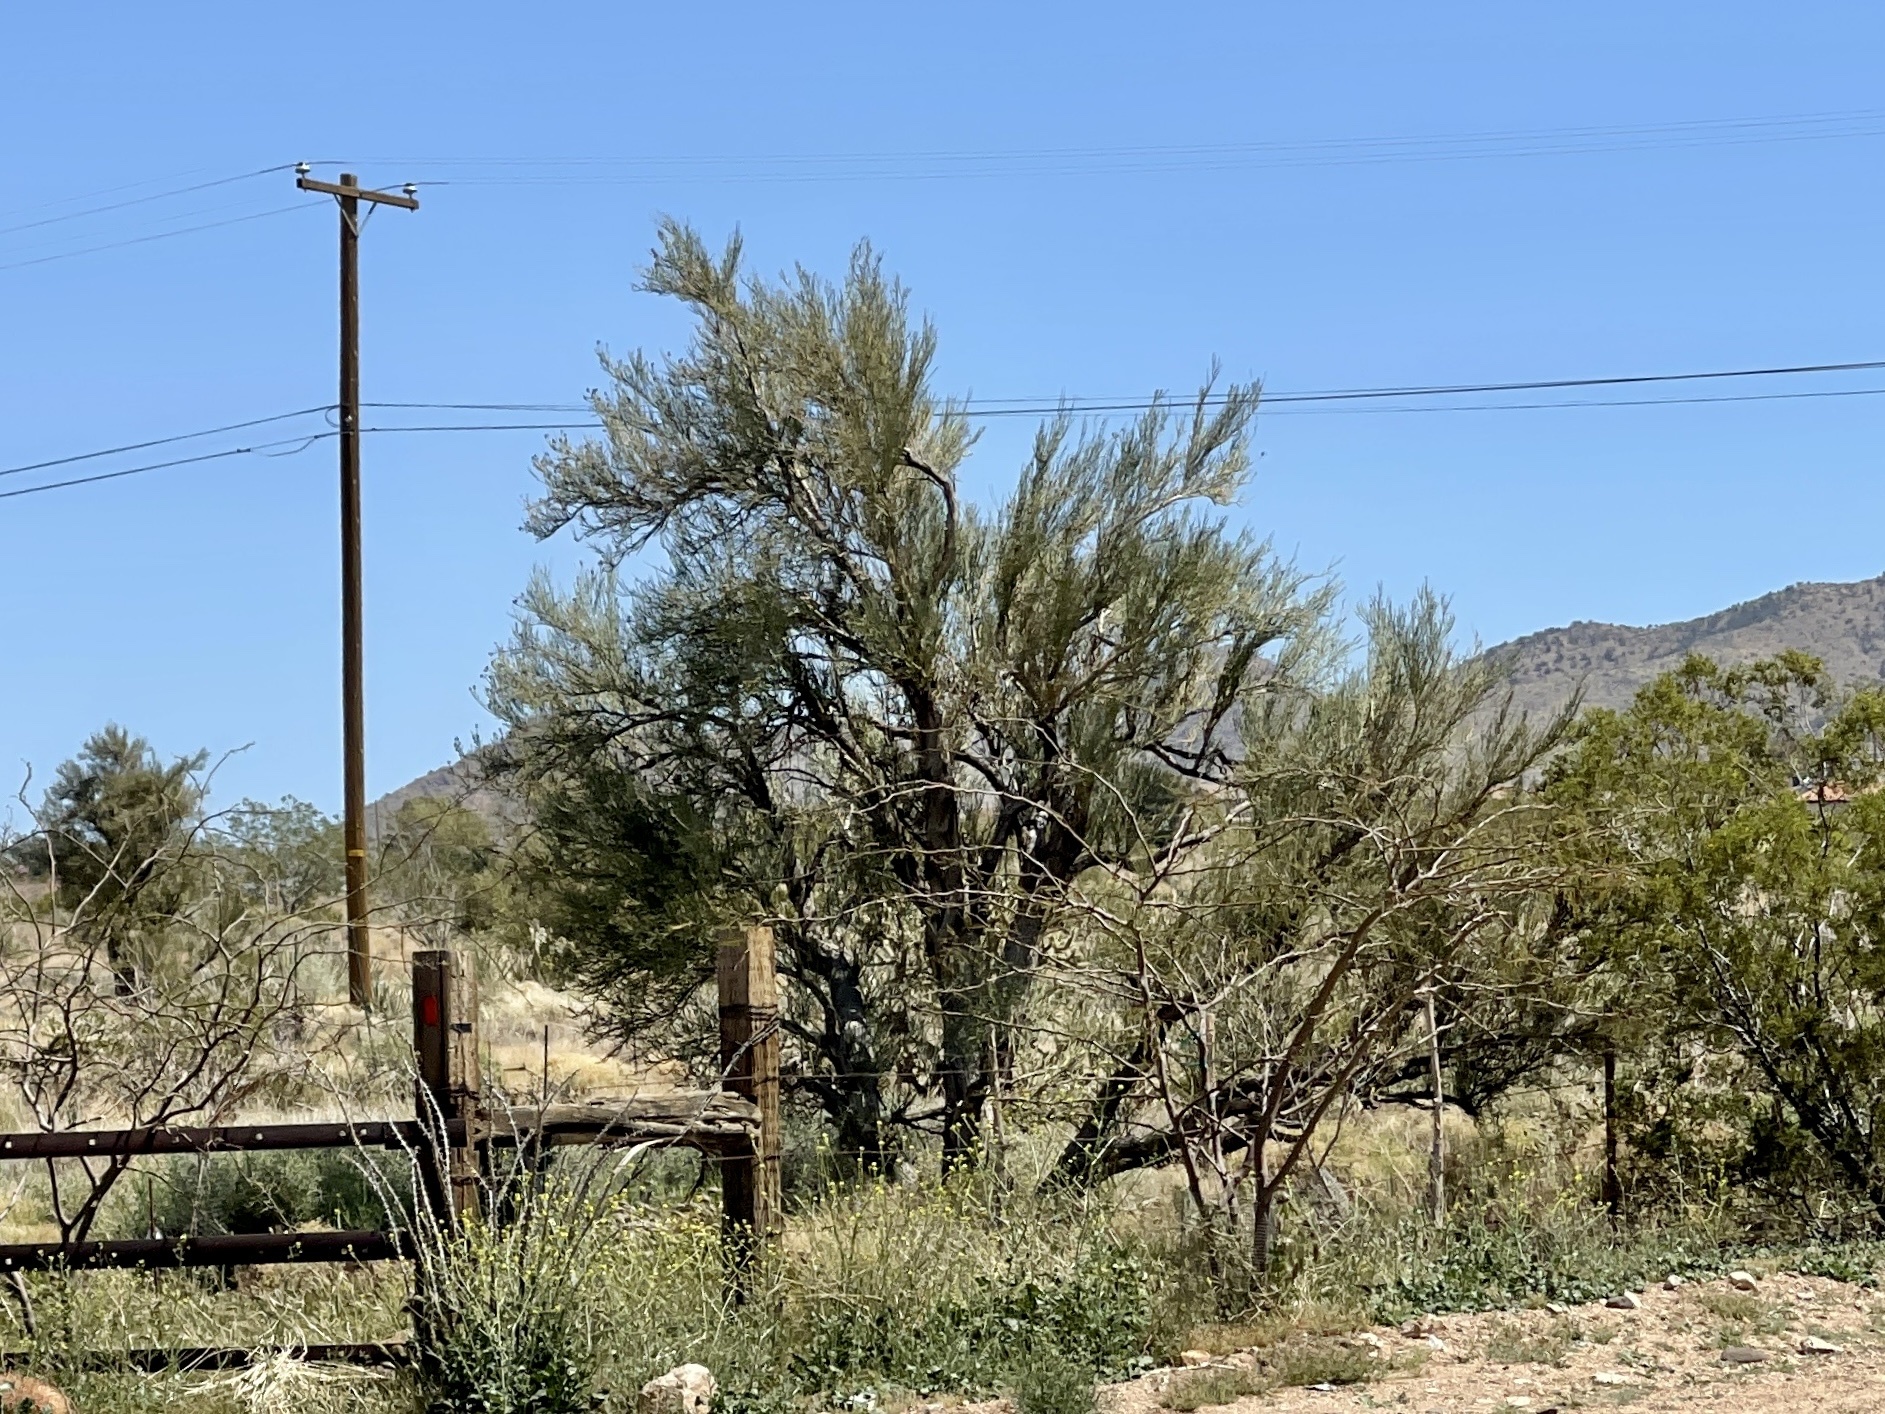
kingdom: Plantae
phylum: Tracheophyta
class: Magnoliopsida
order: Celastrales
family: Celastraceae
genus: Canotia
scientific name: Canotia holacantha
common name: Crucifixion thorns
